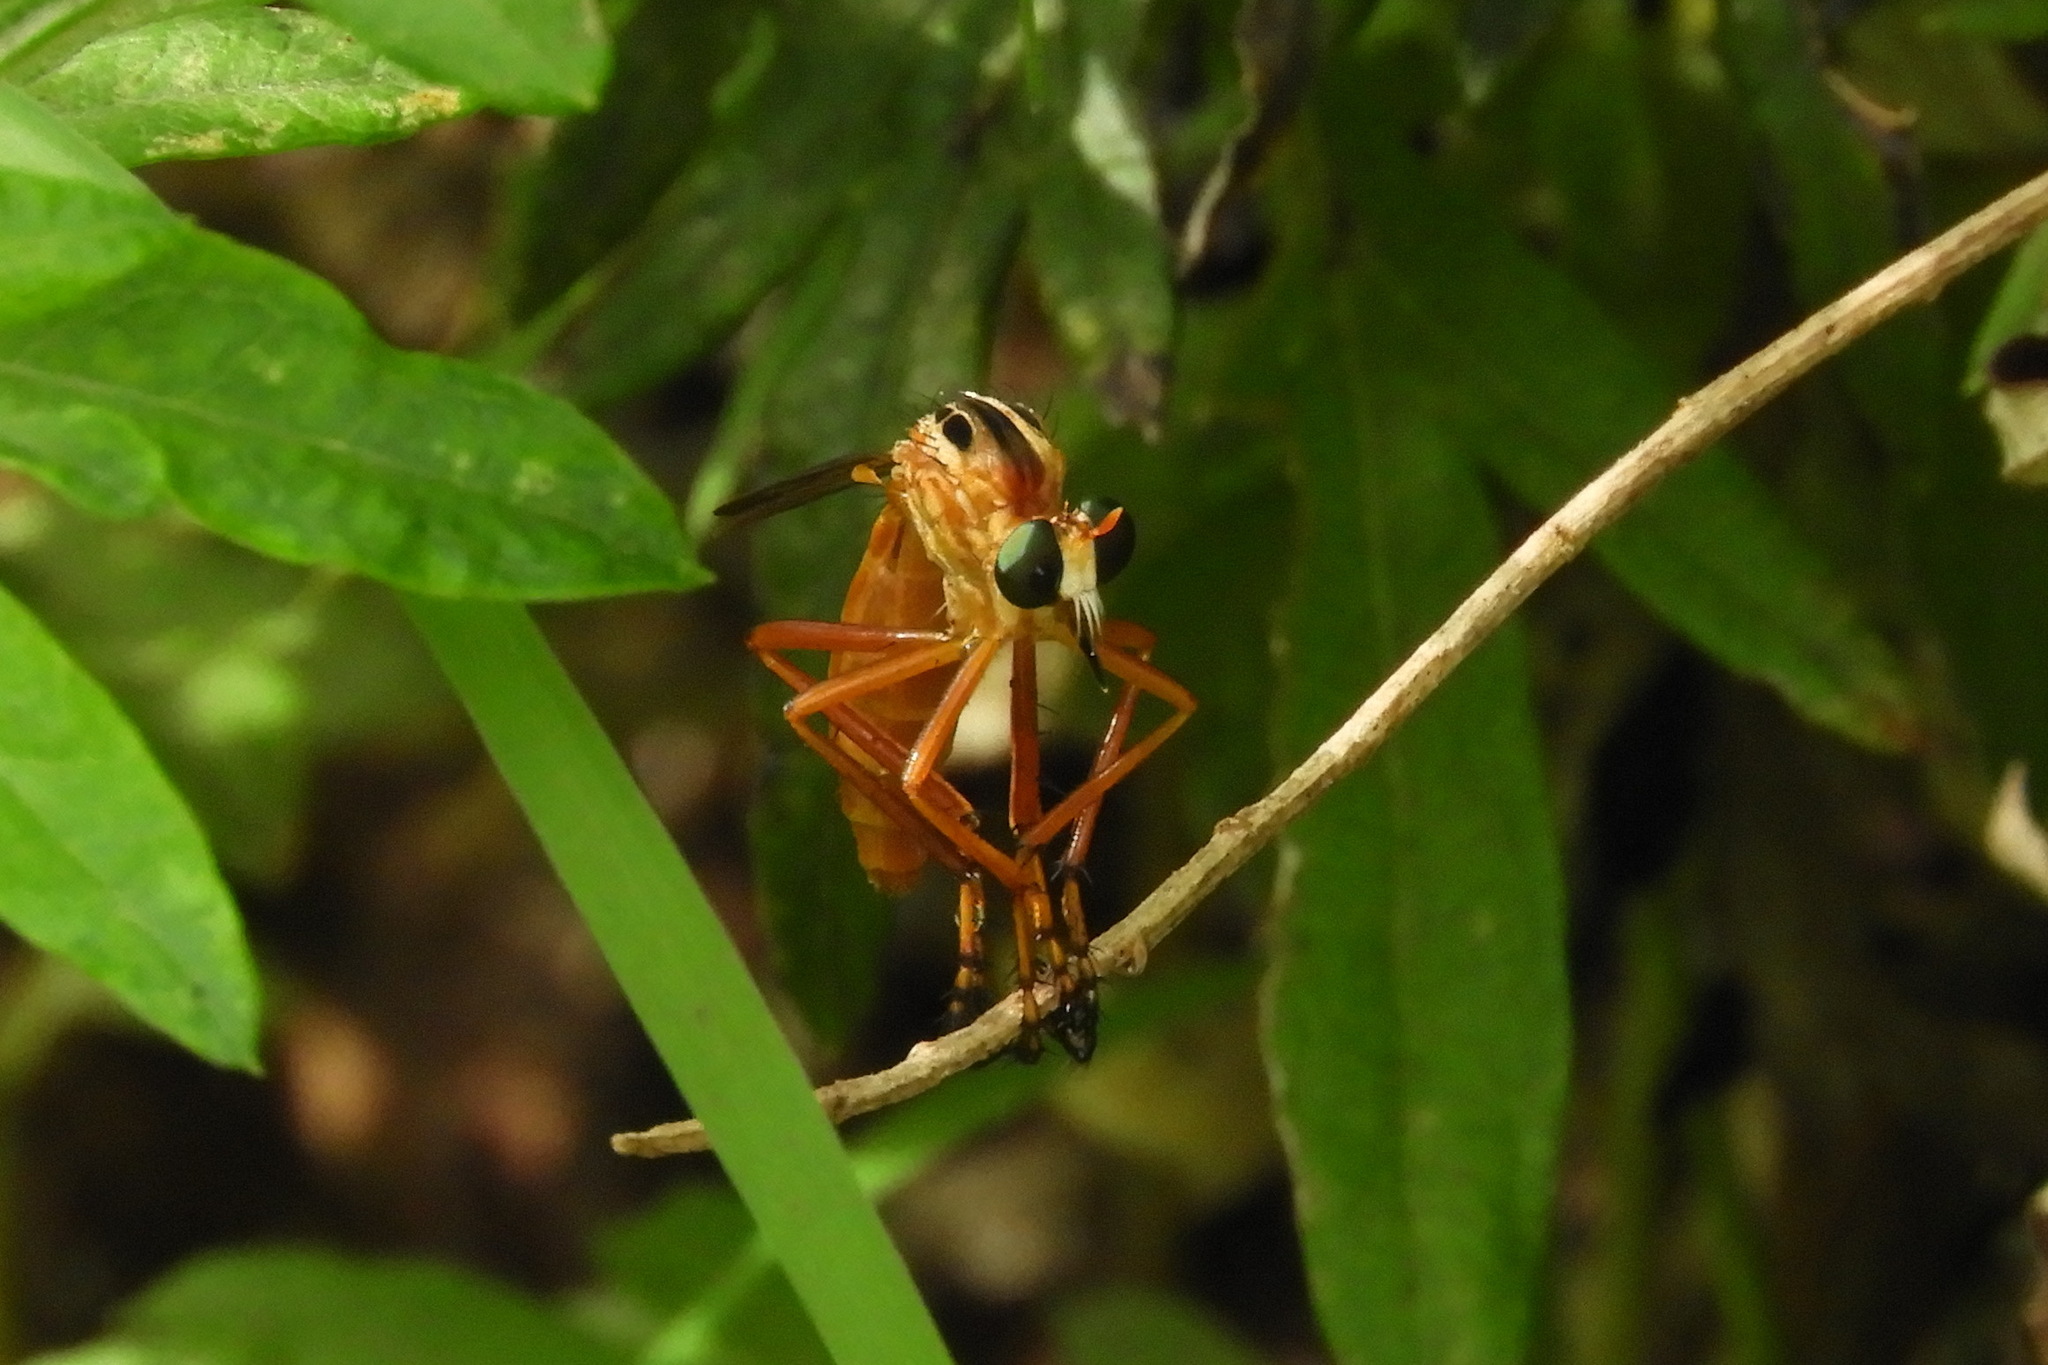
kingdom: Animalia
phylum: Arthropoda
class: Insecta
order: Diptera
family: Asilidae
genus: Diogmites
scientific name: Diogmites neoternatus
